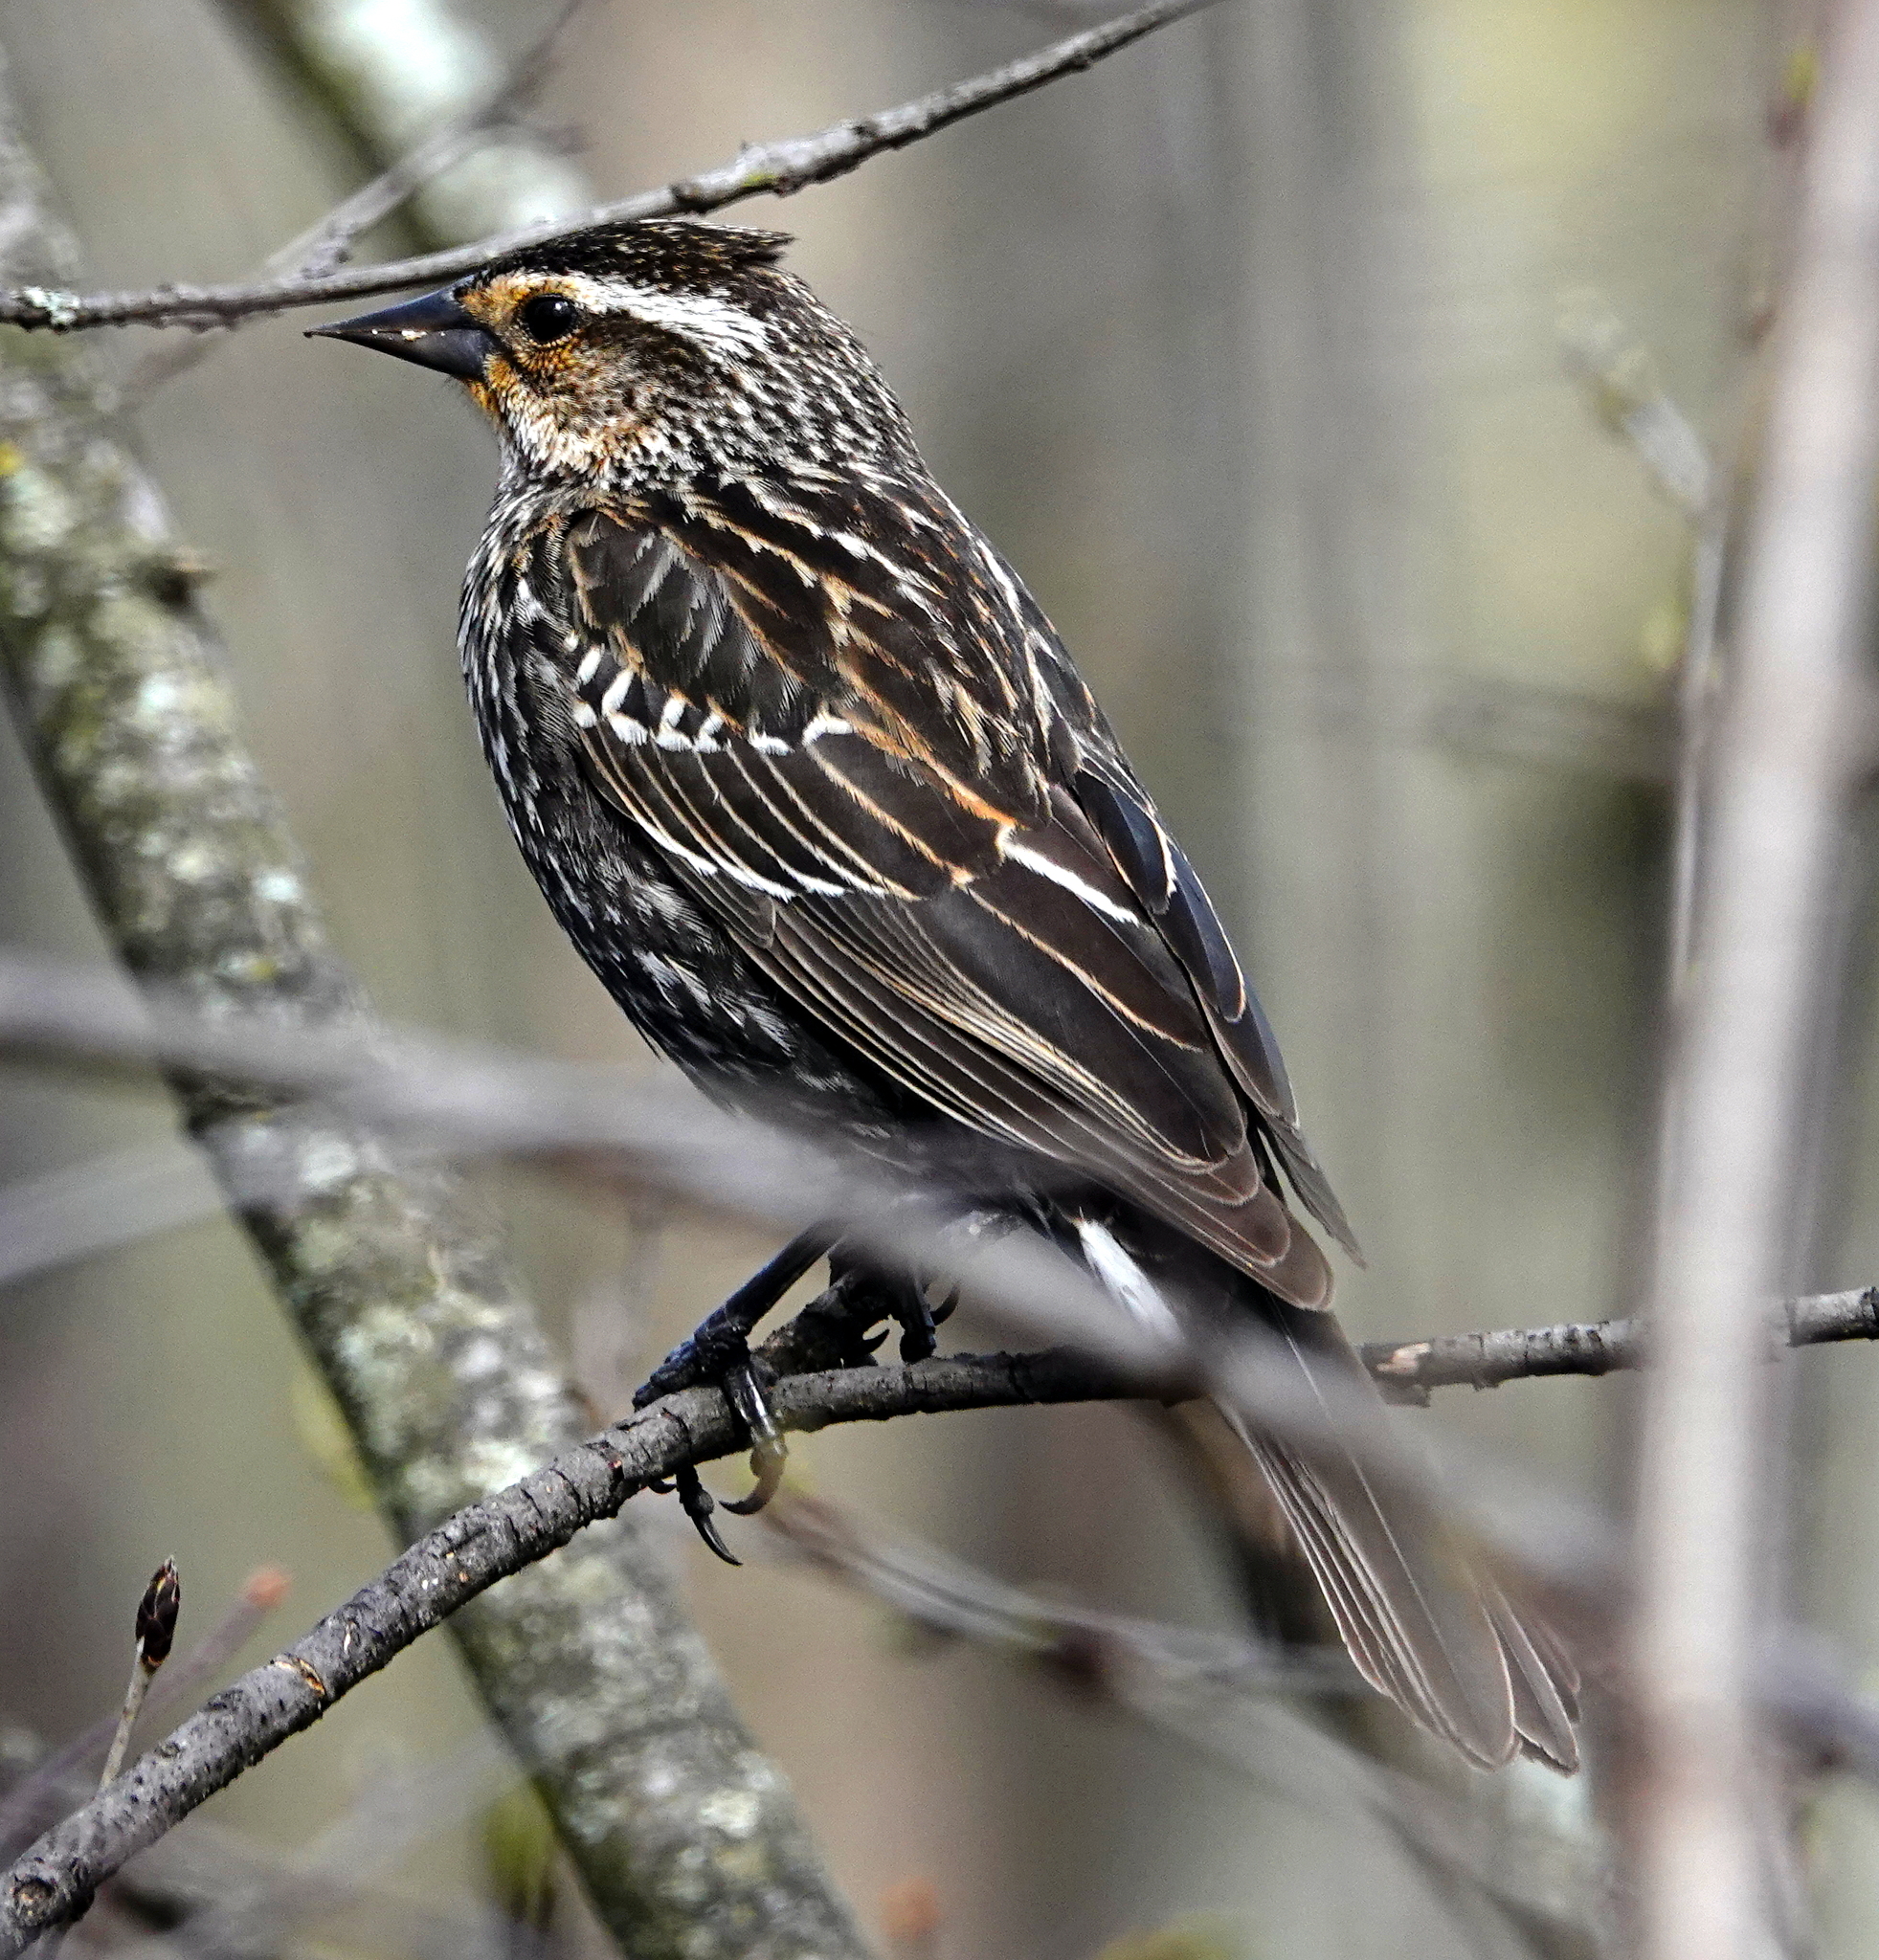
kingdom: Animalia
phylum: Chordata
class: Aves
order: Passeriformes
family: Icteridae
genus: Agelaius
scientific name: Agelaius phoeniceus
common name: Red-winged blackbird
